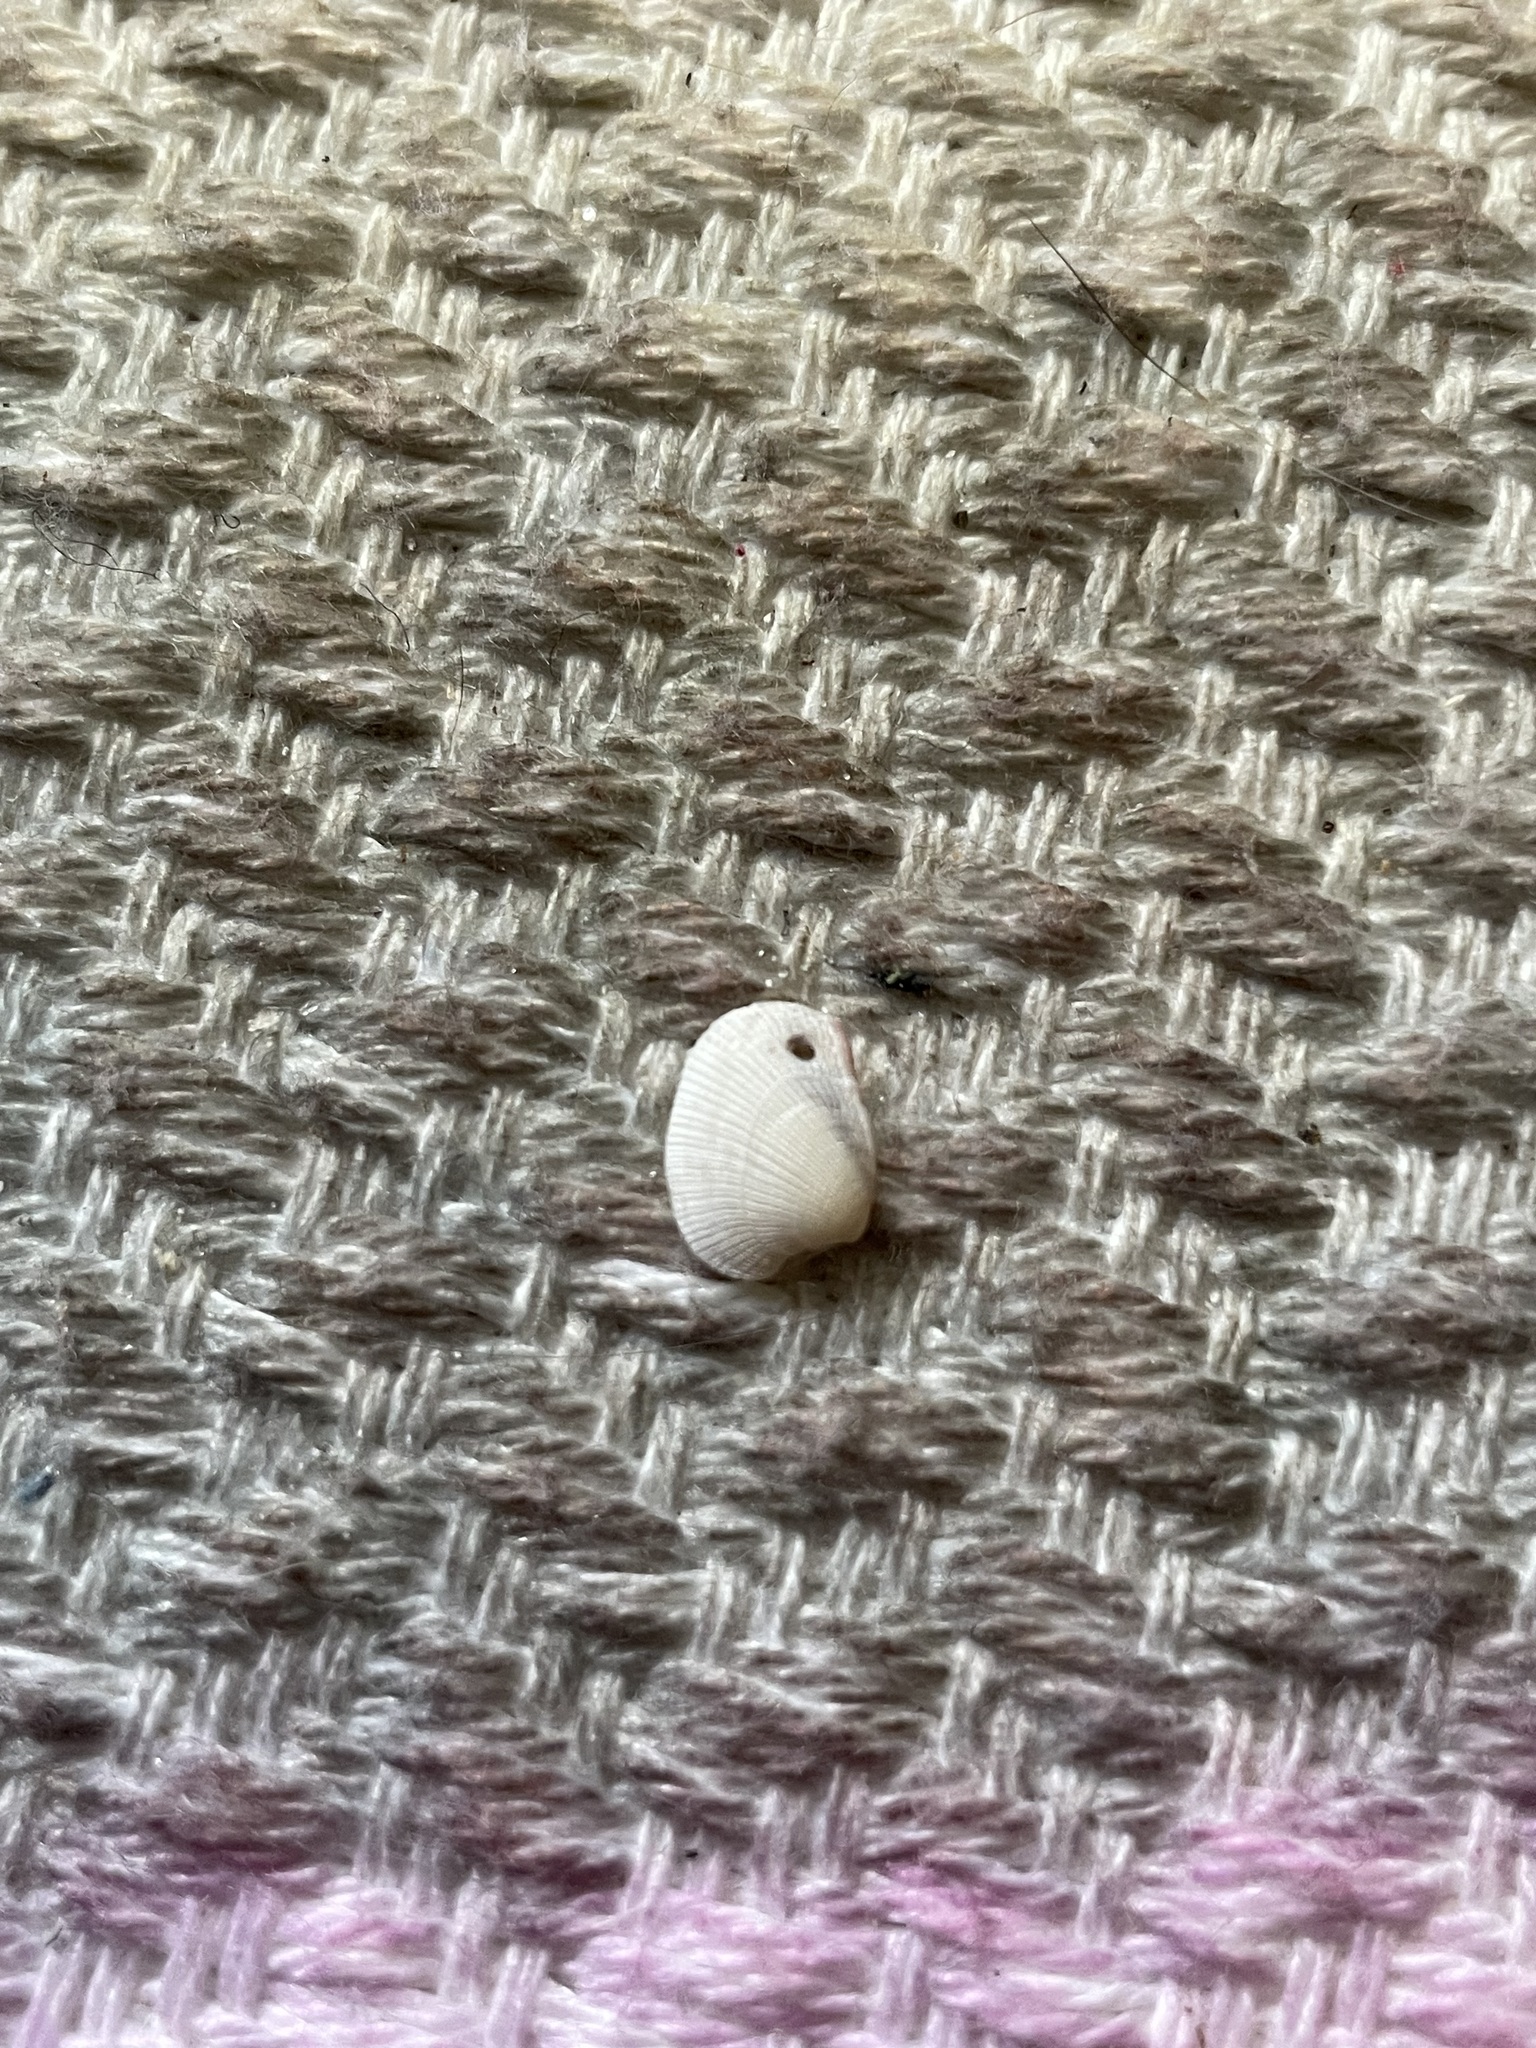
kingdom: Animalia
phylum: Mollusca
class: Bivalvia
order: Venerida
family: Veneridae
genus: Chioneryx
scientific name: Chioneryx grus
